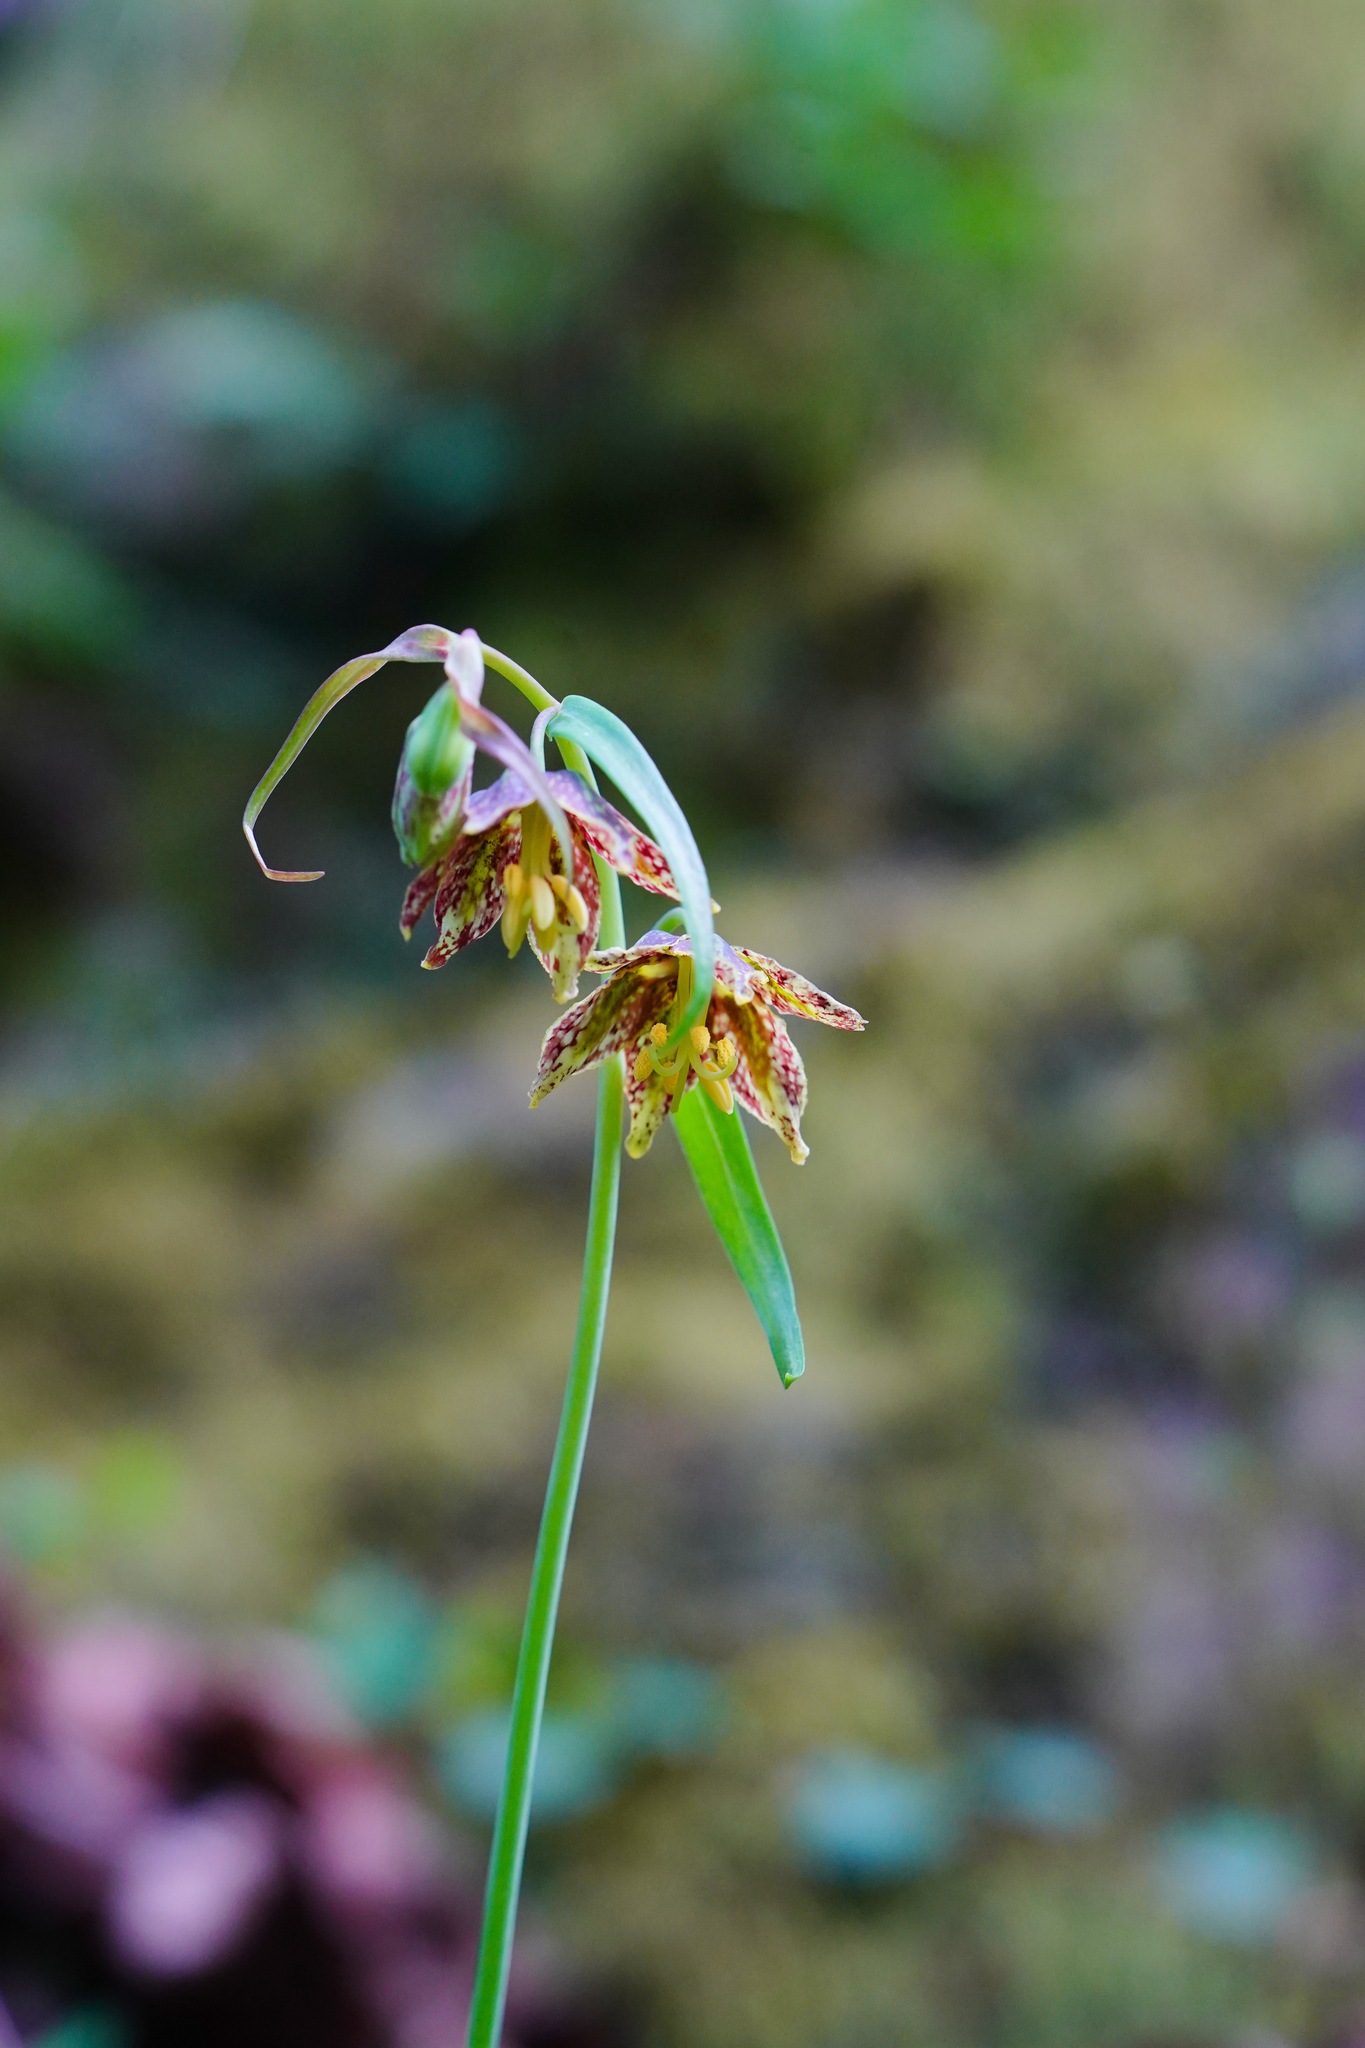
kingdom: Plantae
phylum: Tracheophyta
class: Liliopsida
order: Liliales
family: Liliaceae
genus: Fritillaria
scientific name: Fritillaria affinis
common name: Ojai fritillary
